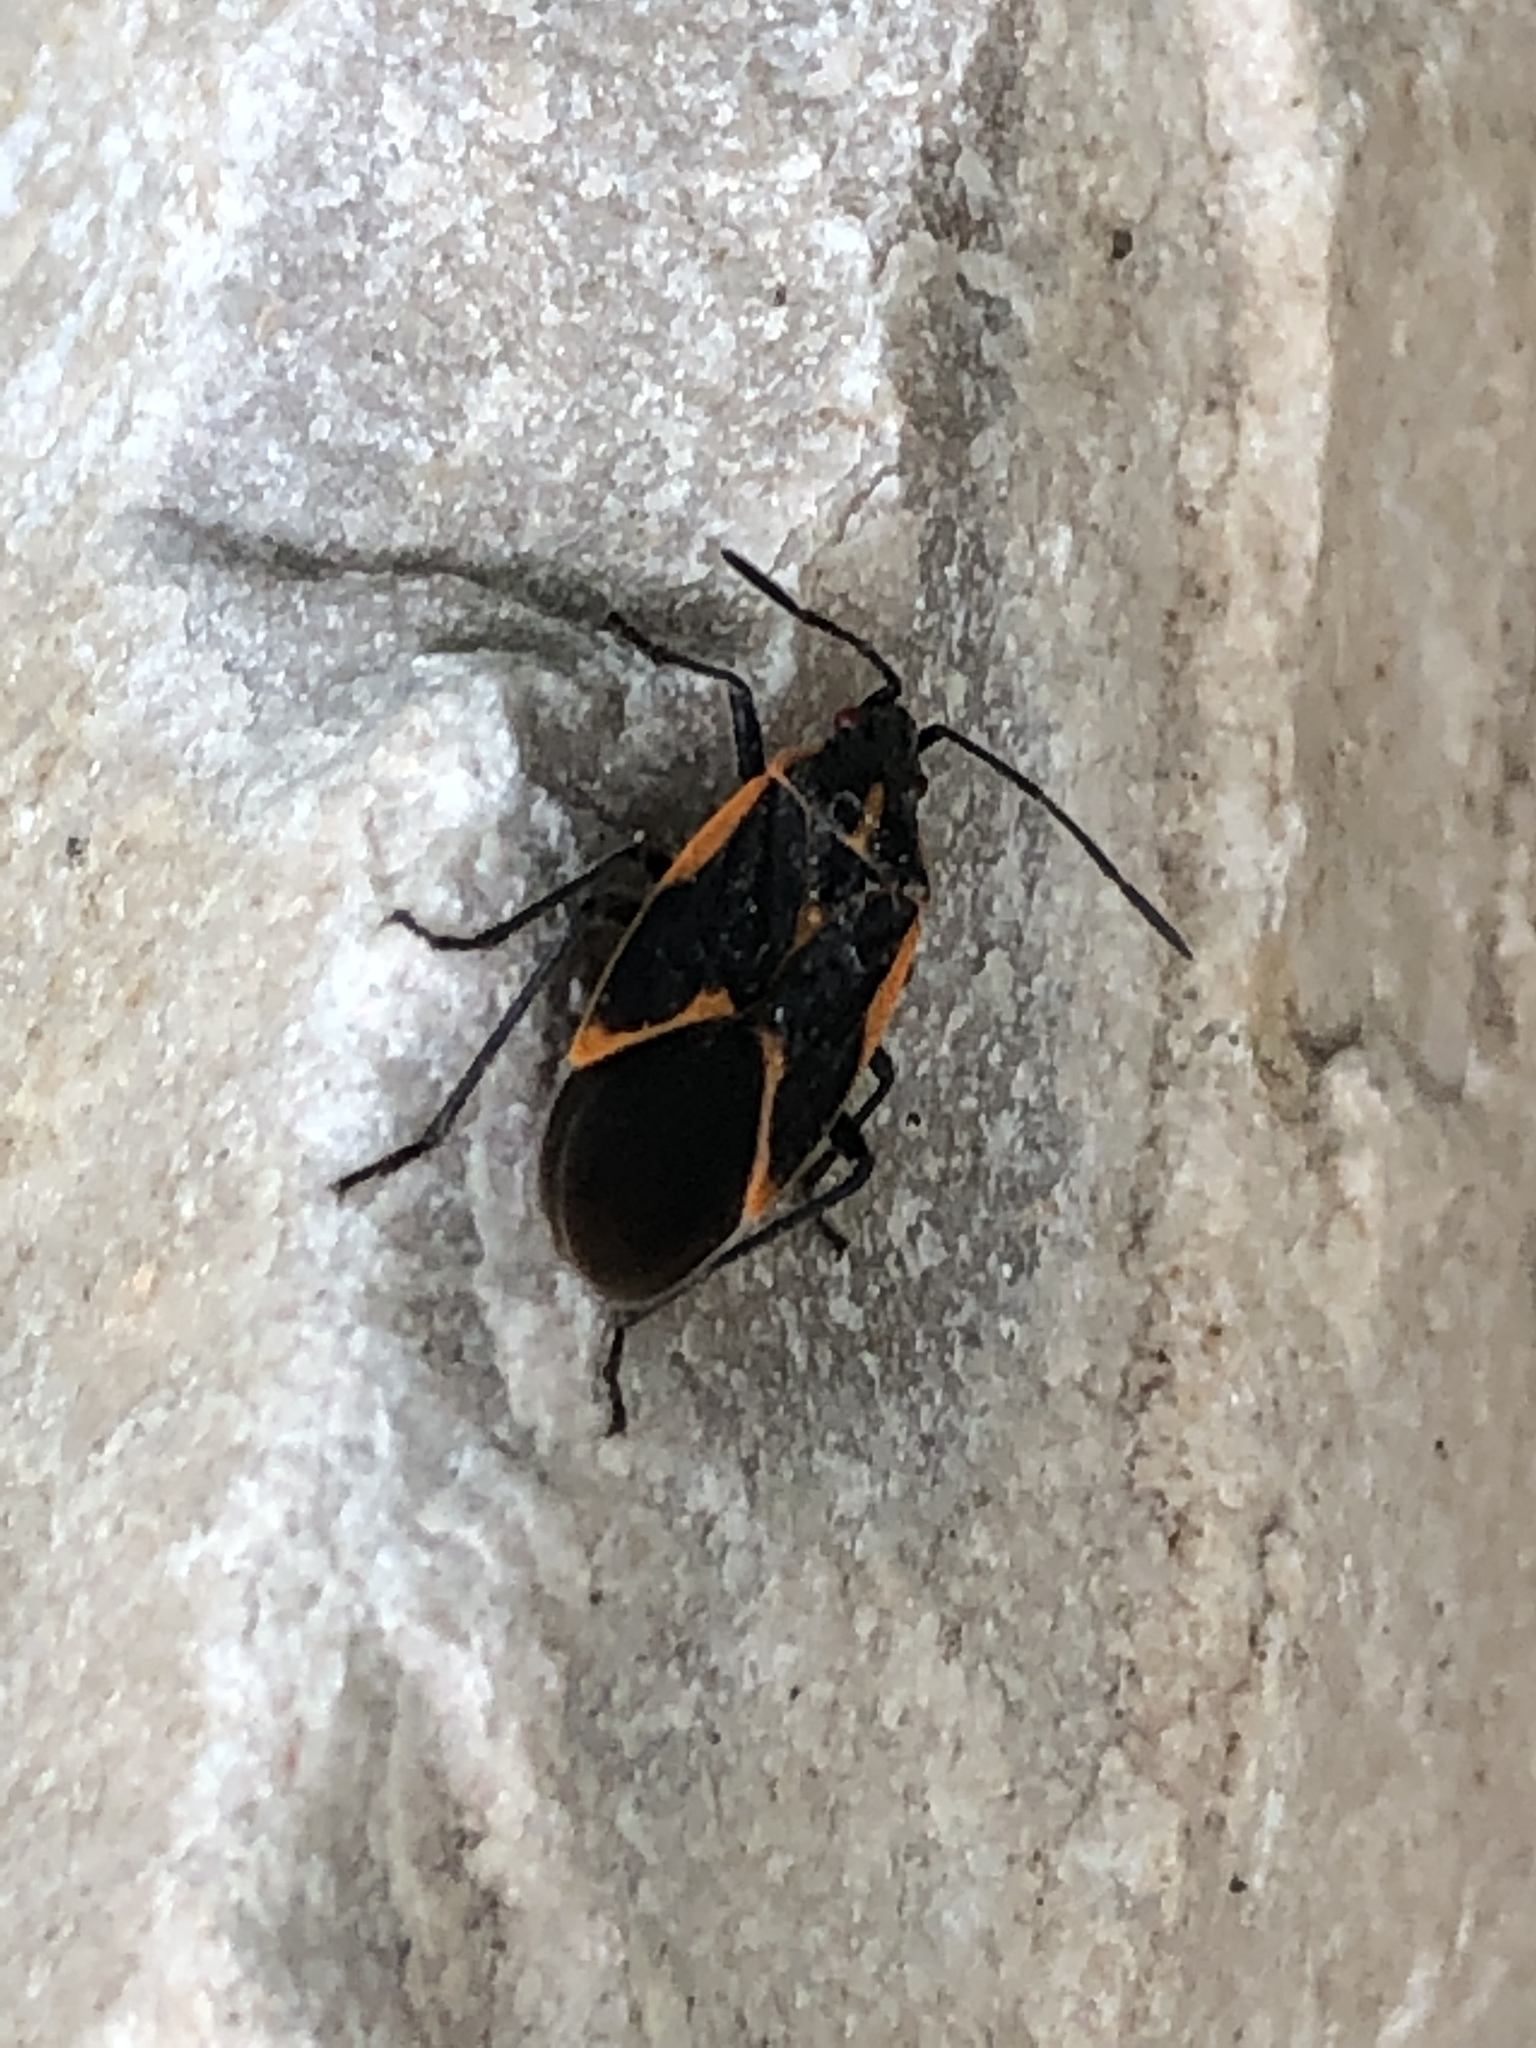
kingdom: Animalia
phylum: Arthropoda
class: Insecta
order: Hemiptera
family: Rhopalidae
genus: Boisea
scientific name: Boisea trivittata
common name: Boxelder bug
